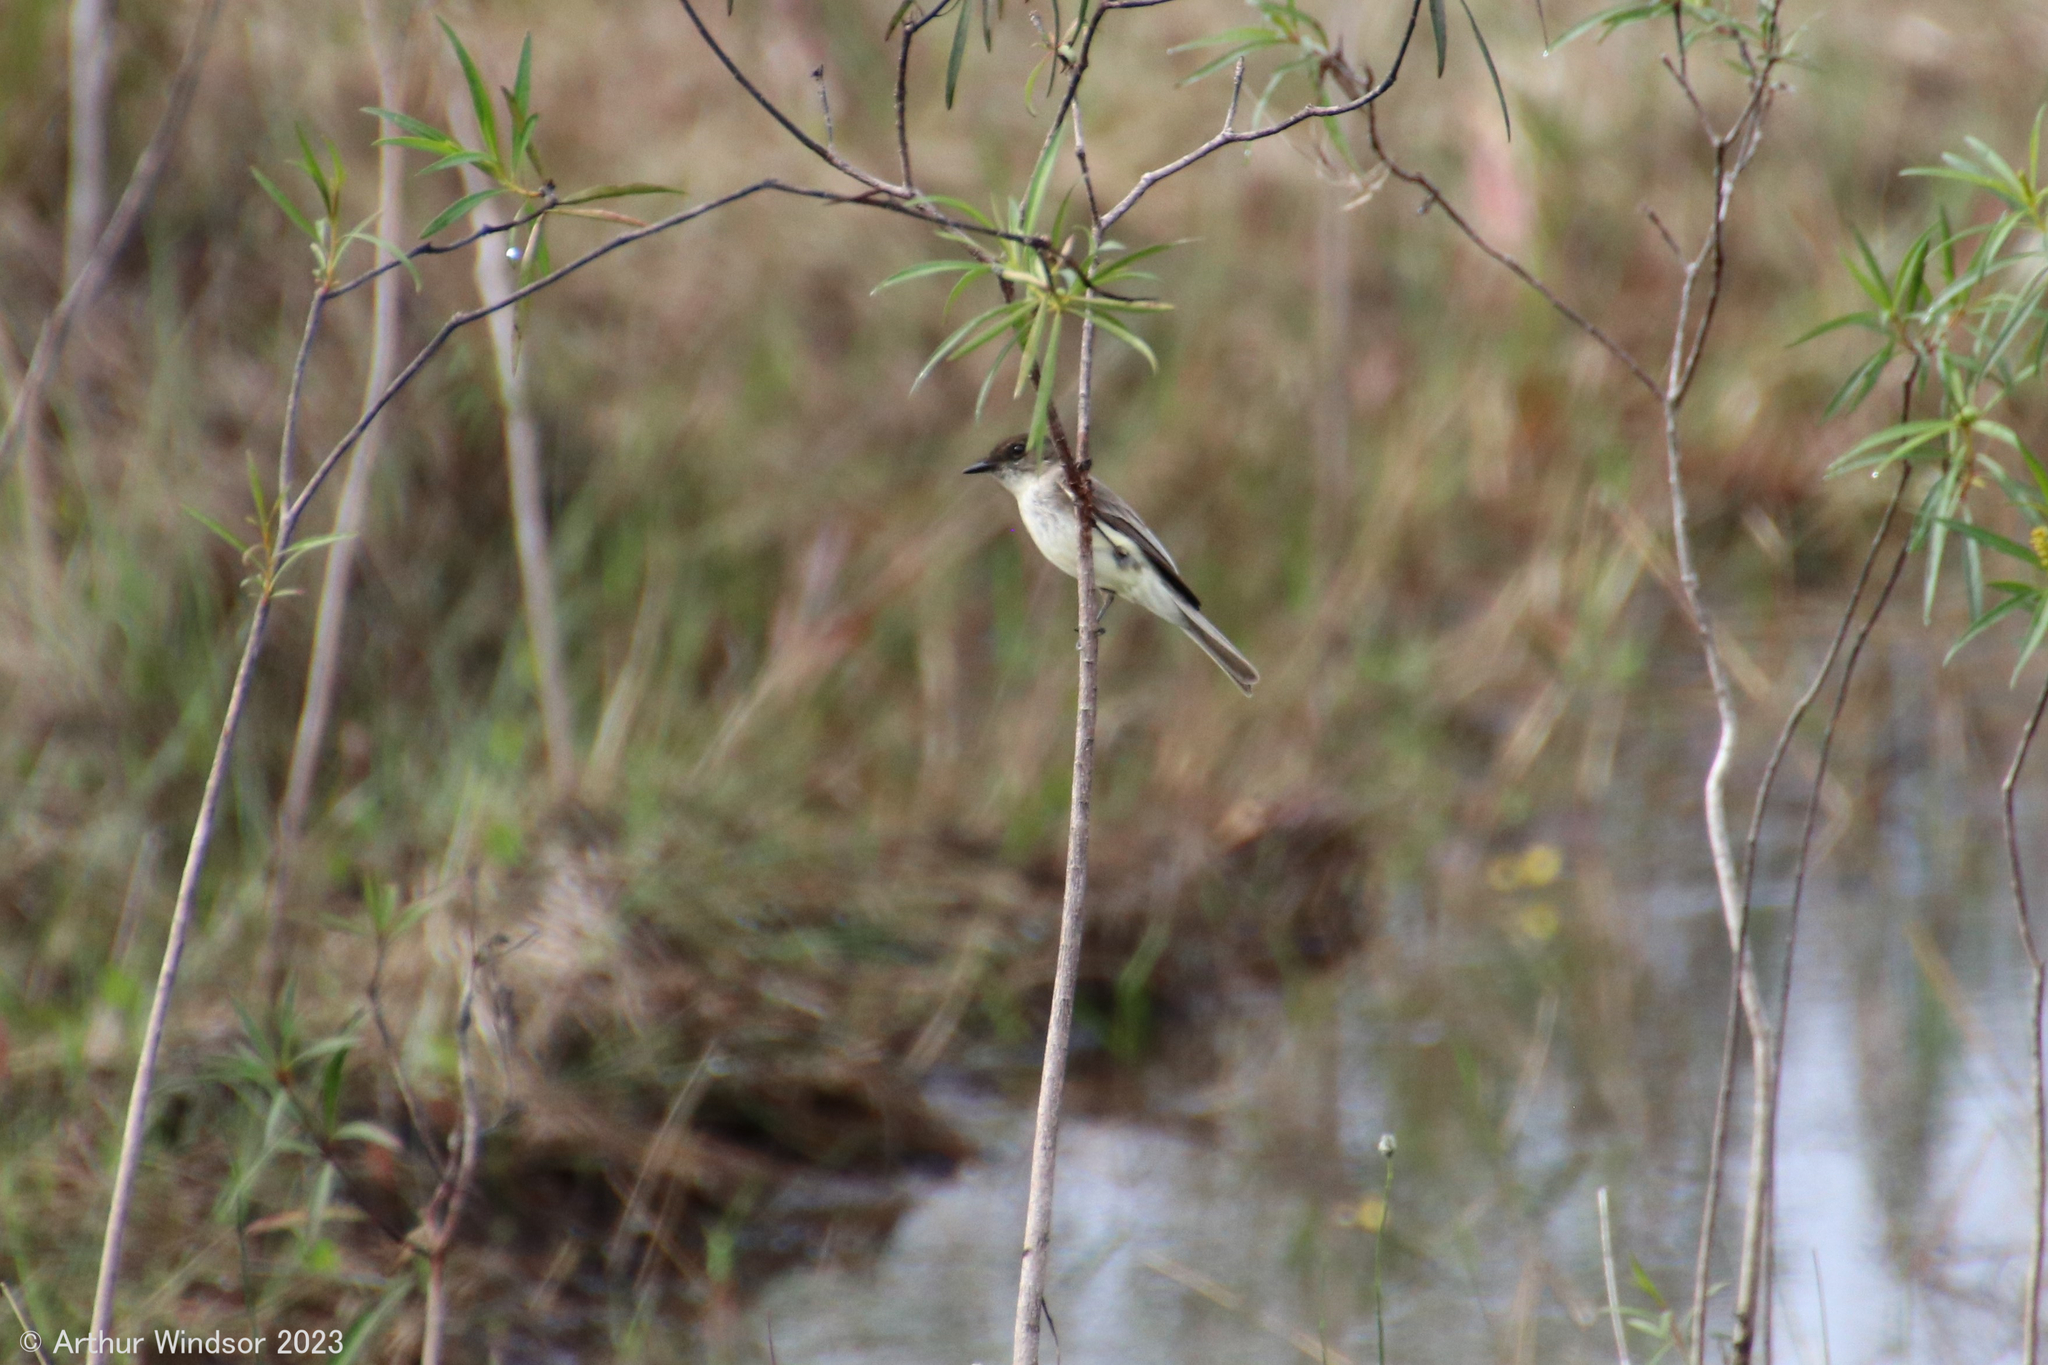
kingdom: Animalia
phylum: Chordata
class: Aves
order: Passeriformes
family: Tyrannidae
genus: Sayornis
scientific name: Sayornis phoebe
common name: Eastern phoebe
